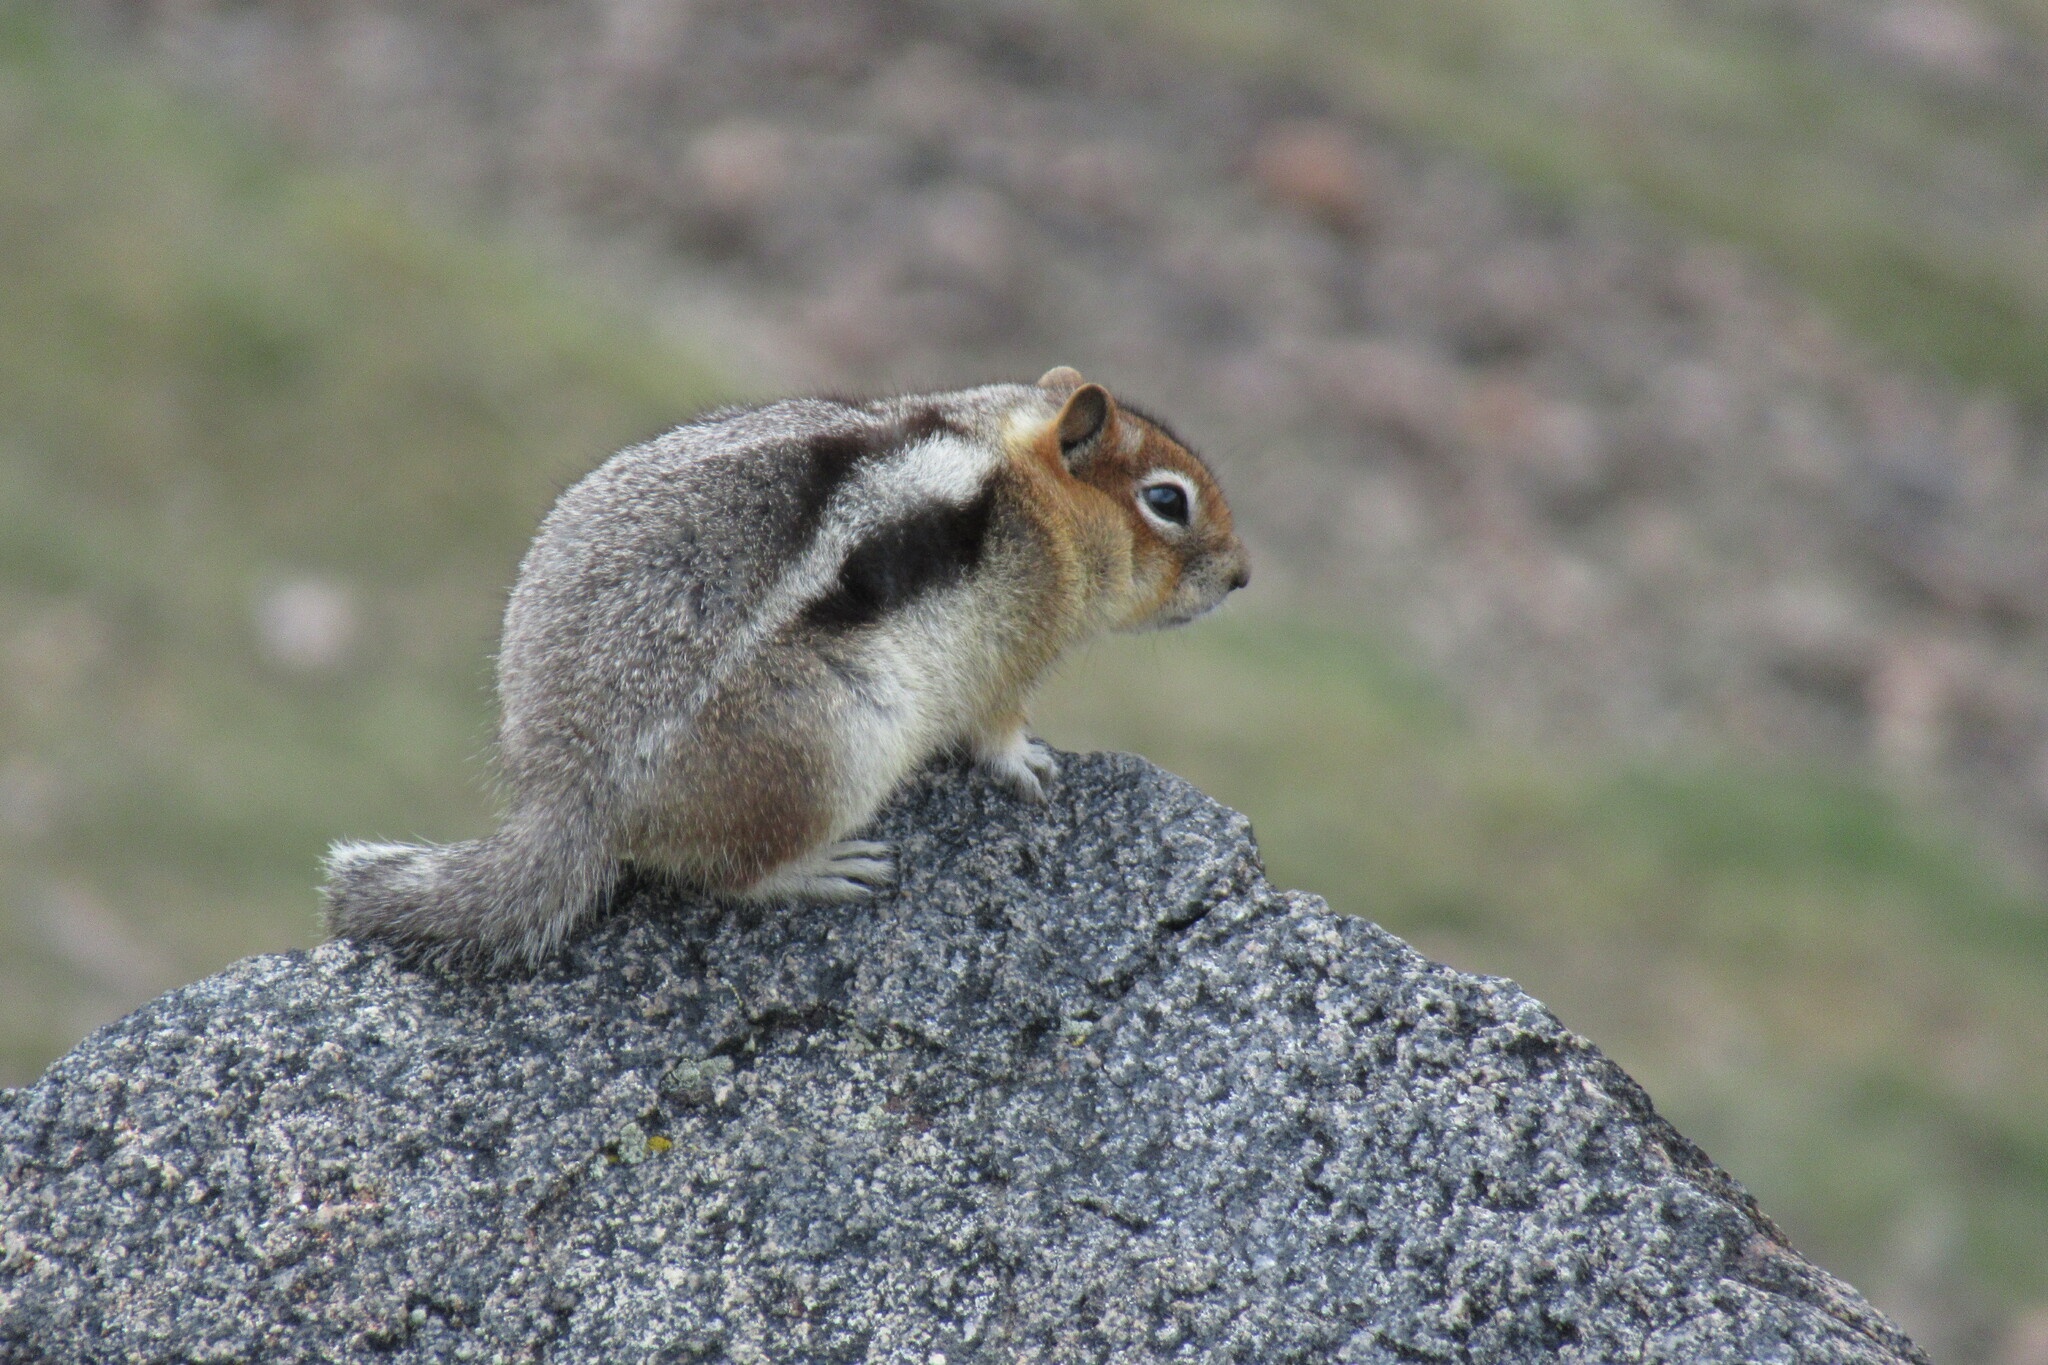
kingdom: Animalia
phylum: Chordata
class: Mammalia
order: Rodentia
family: Sciuridae
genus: Callospermophilus
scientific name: Callospermophilus lateralis
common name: Golden-mantled ground squirrel
